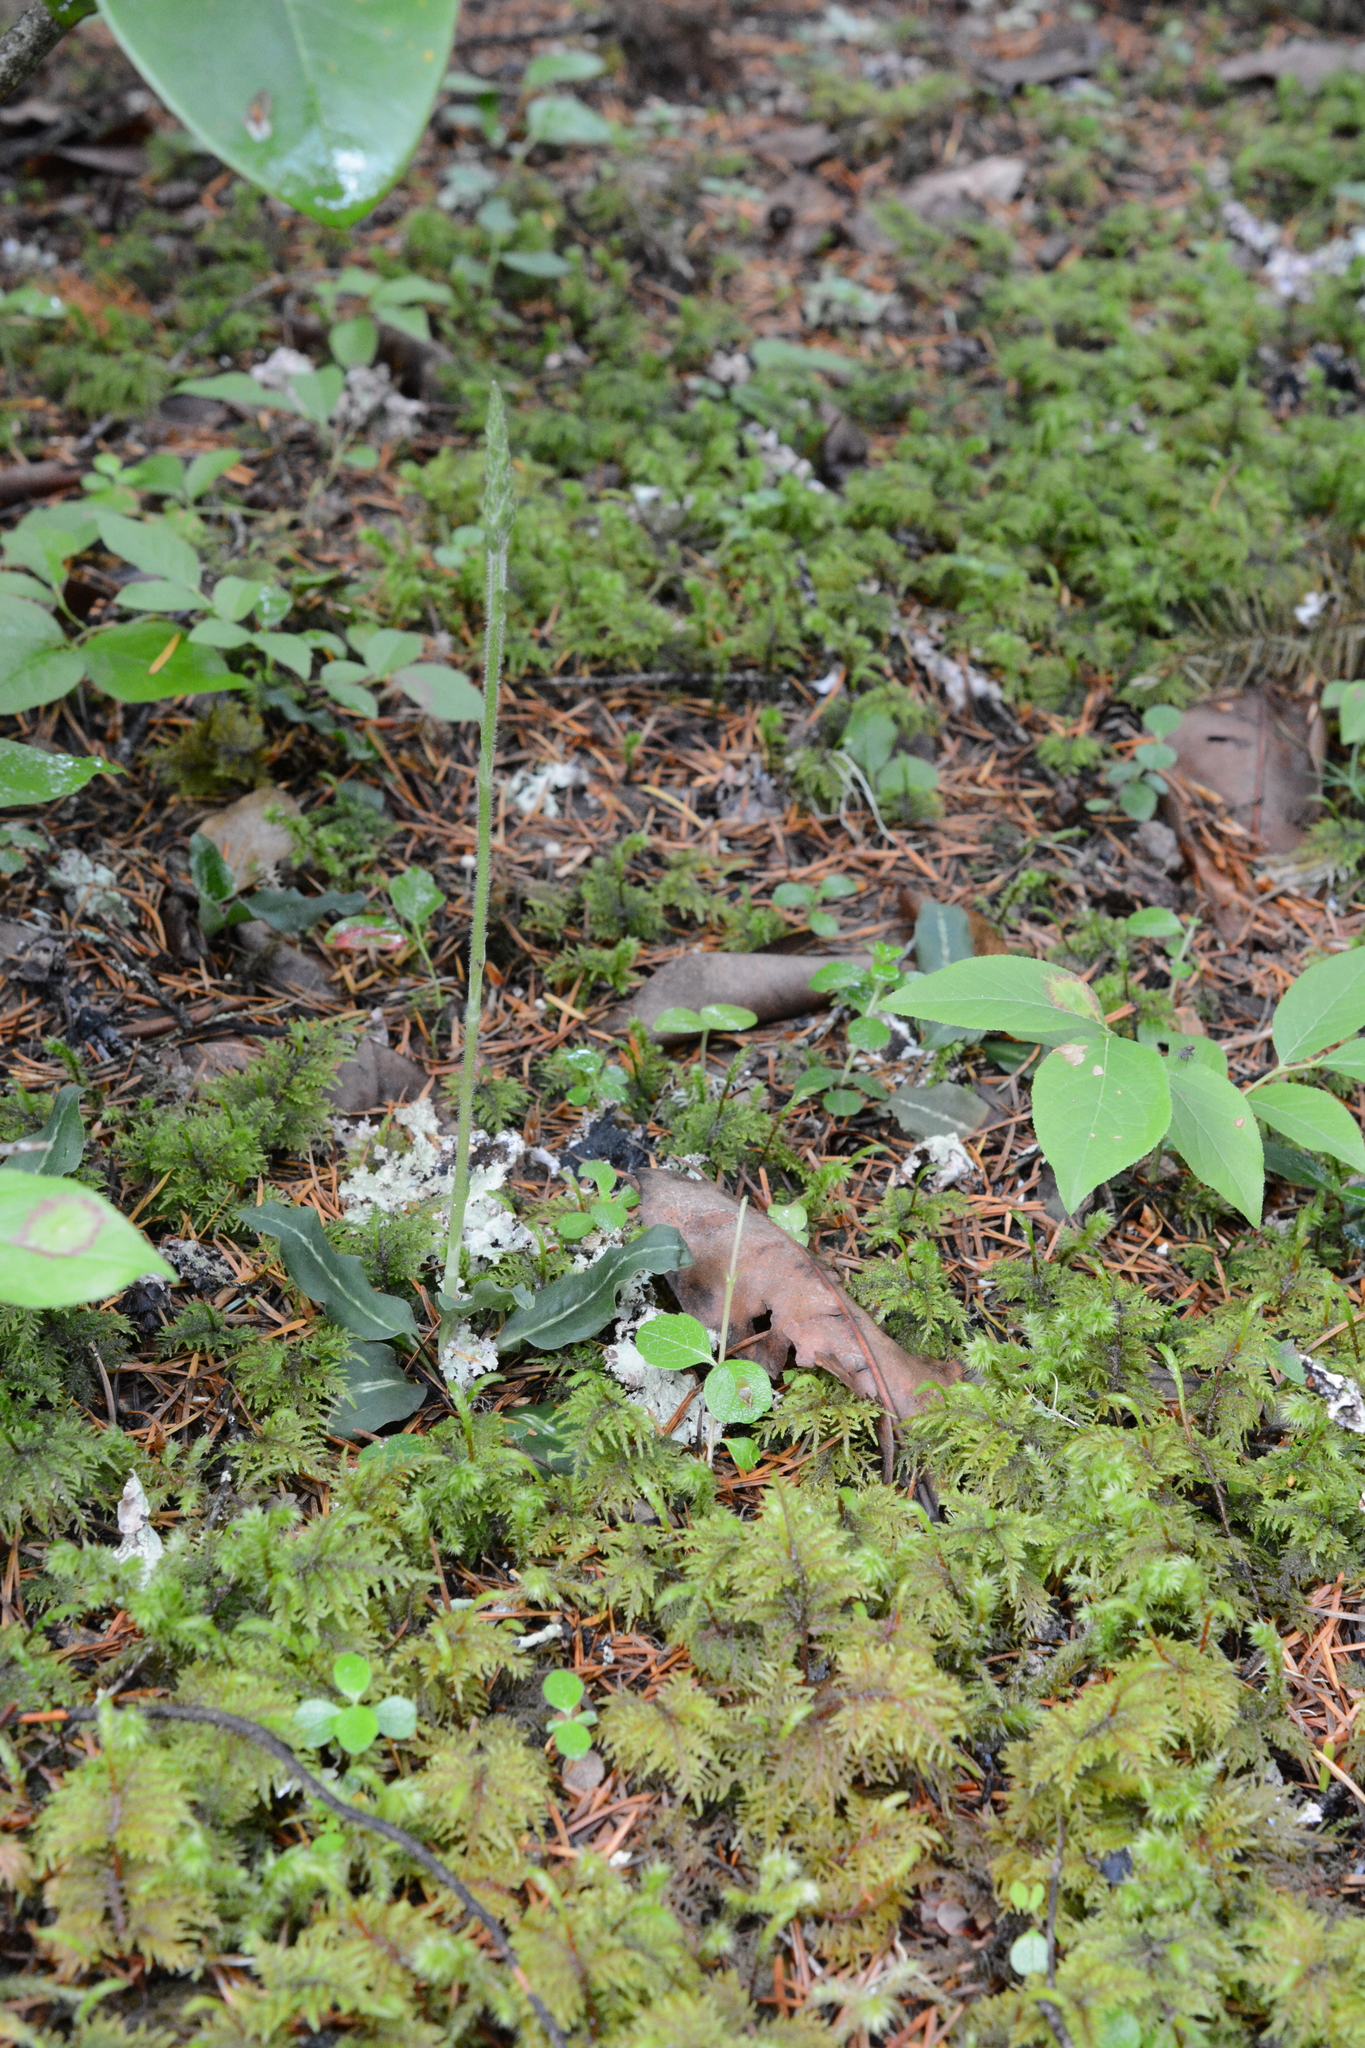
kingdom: Plantae
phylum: Tracheophyta
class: Liliopsida
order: Asparagales
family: Orchidaceae
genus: Goodyera
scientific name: Goodyera oblongifolia
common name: Giant rattlesnake-plantain
